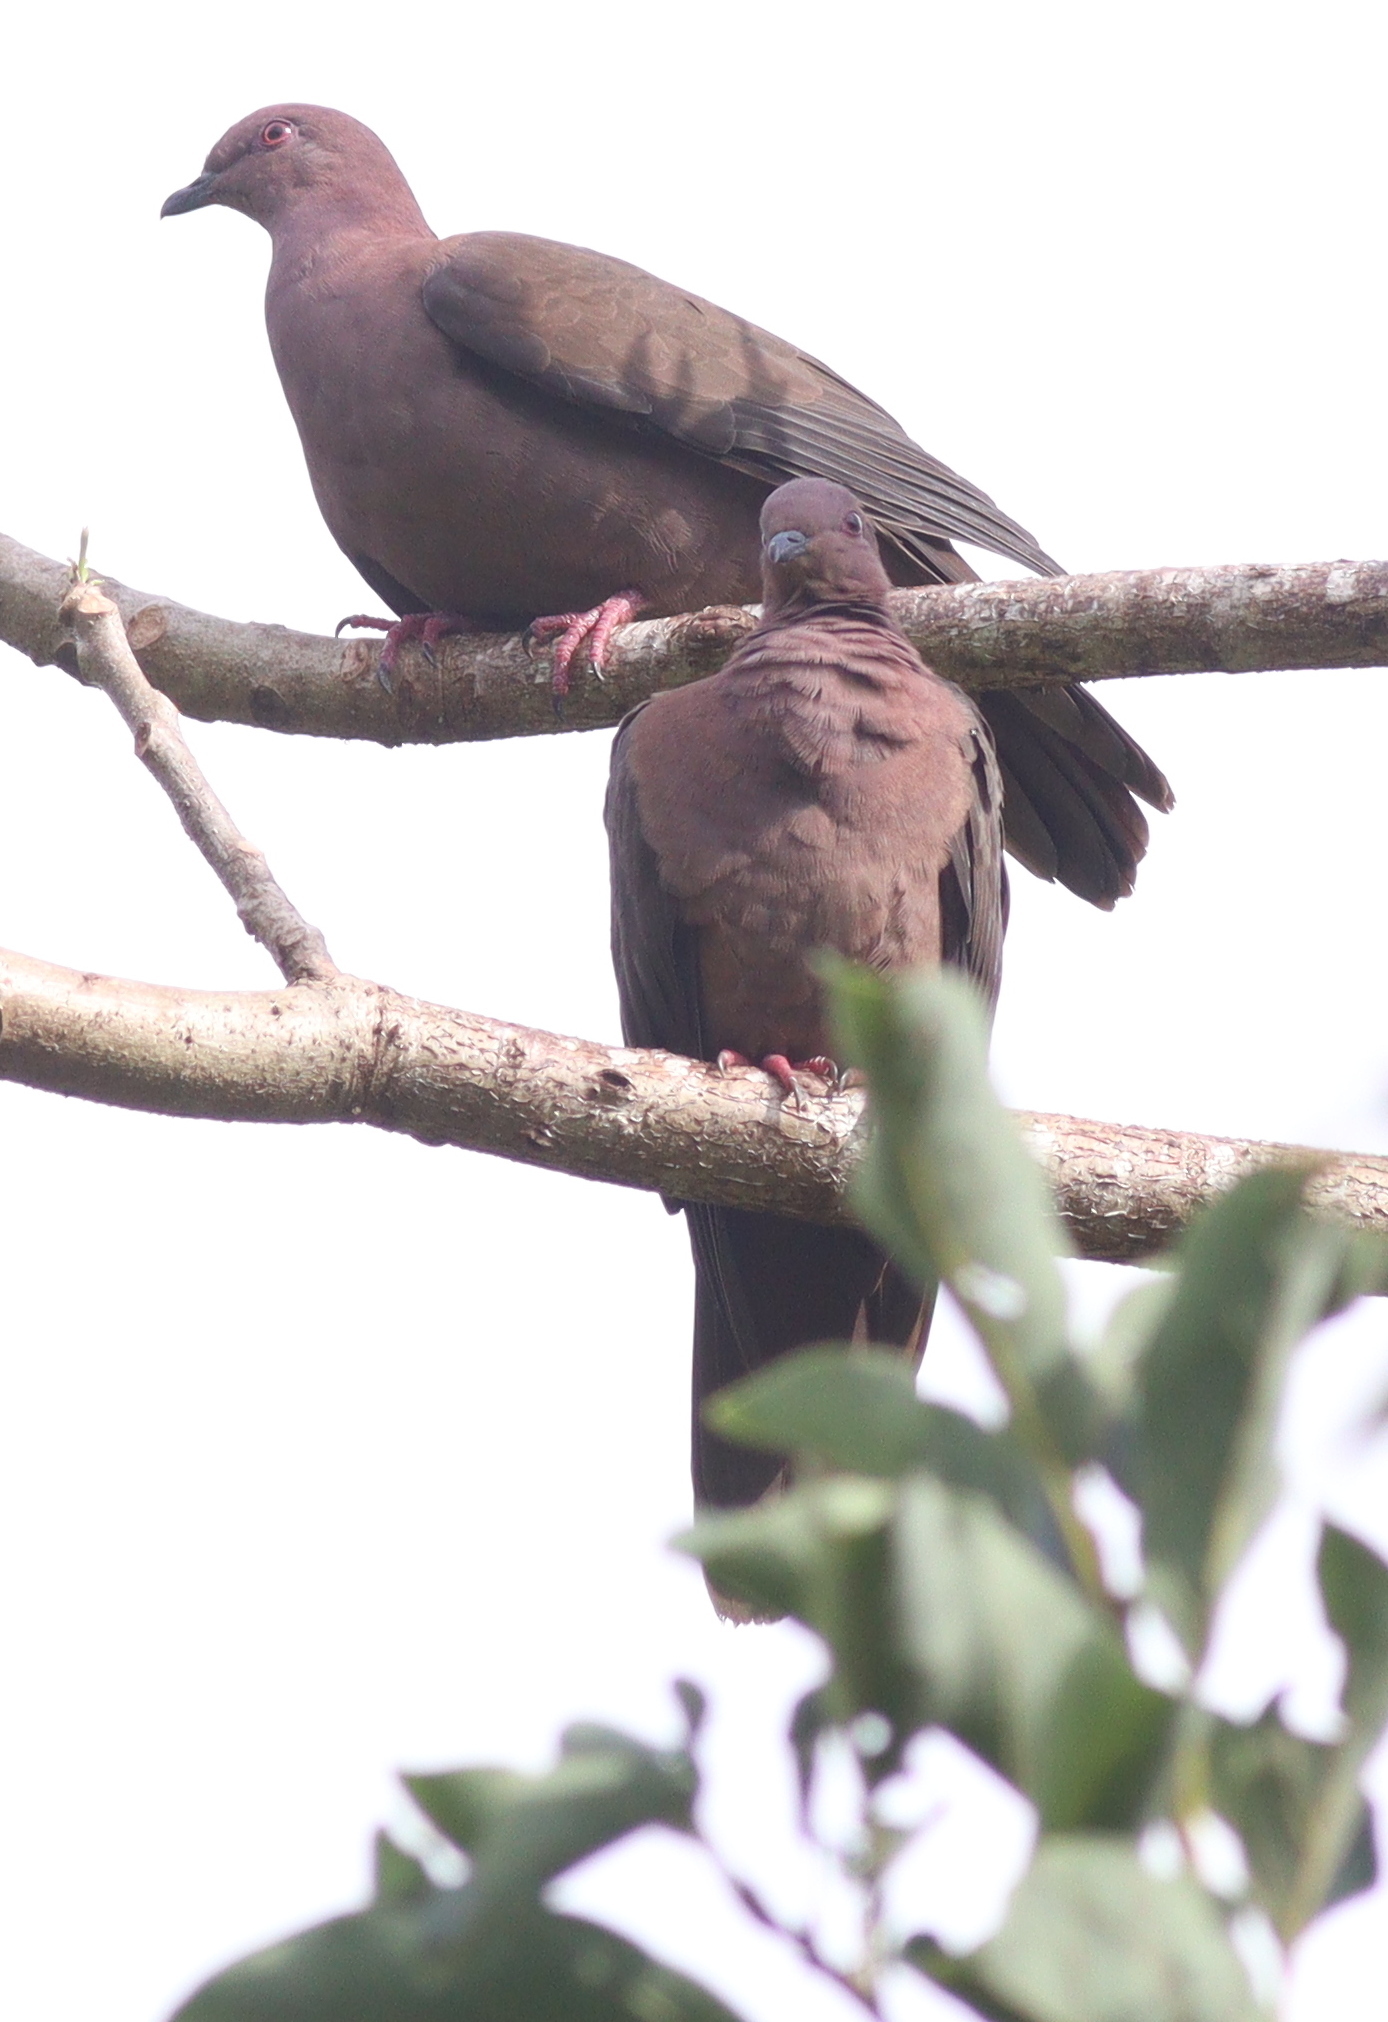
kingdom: Animalia
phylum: Chordata
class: Aves
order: Columbiformes
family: Columbidae
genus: Patagioenas
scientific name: Patagioenas nigrirostris
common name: Short-billed pigeon
